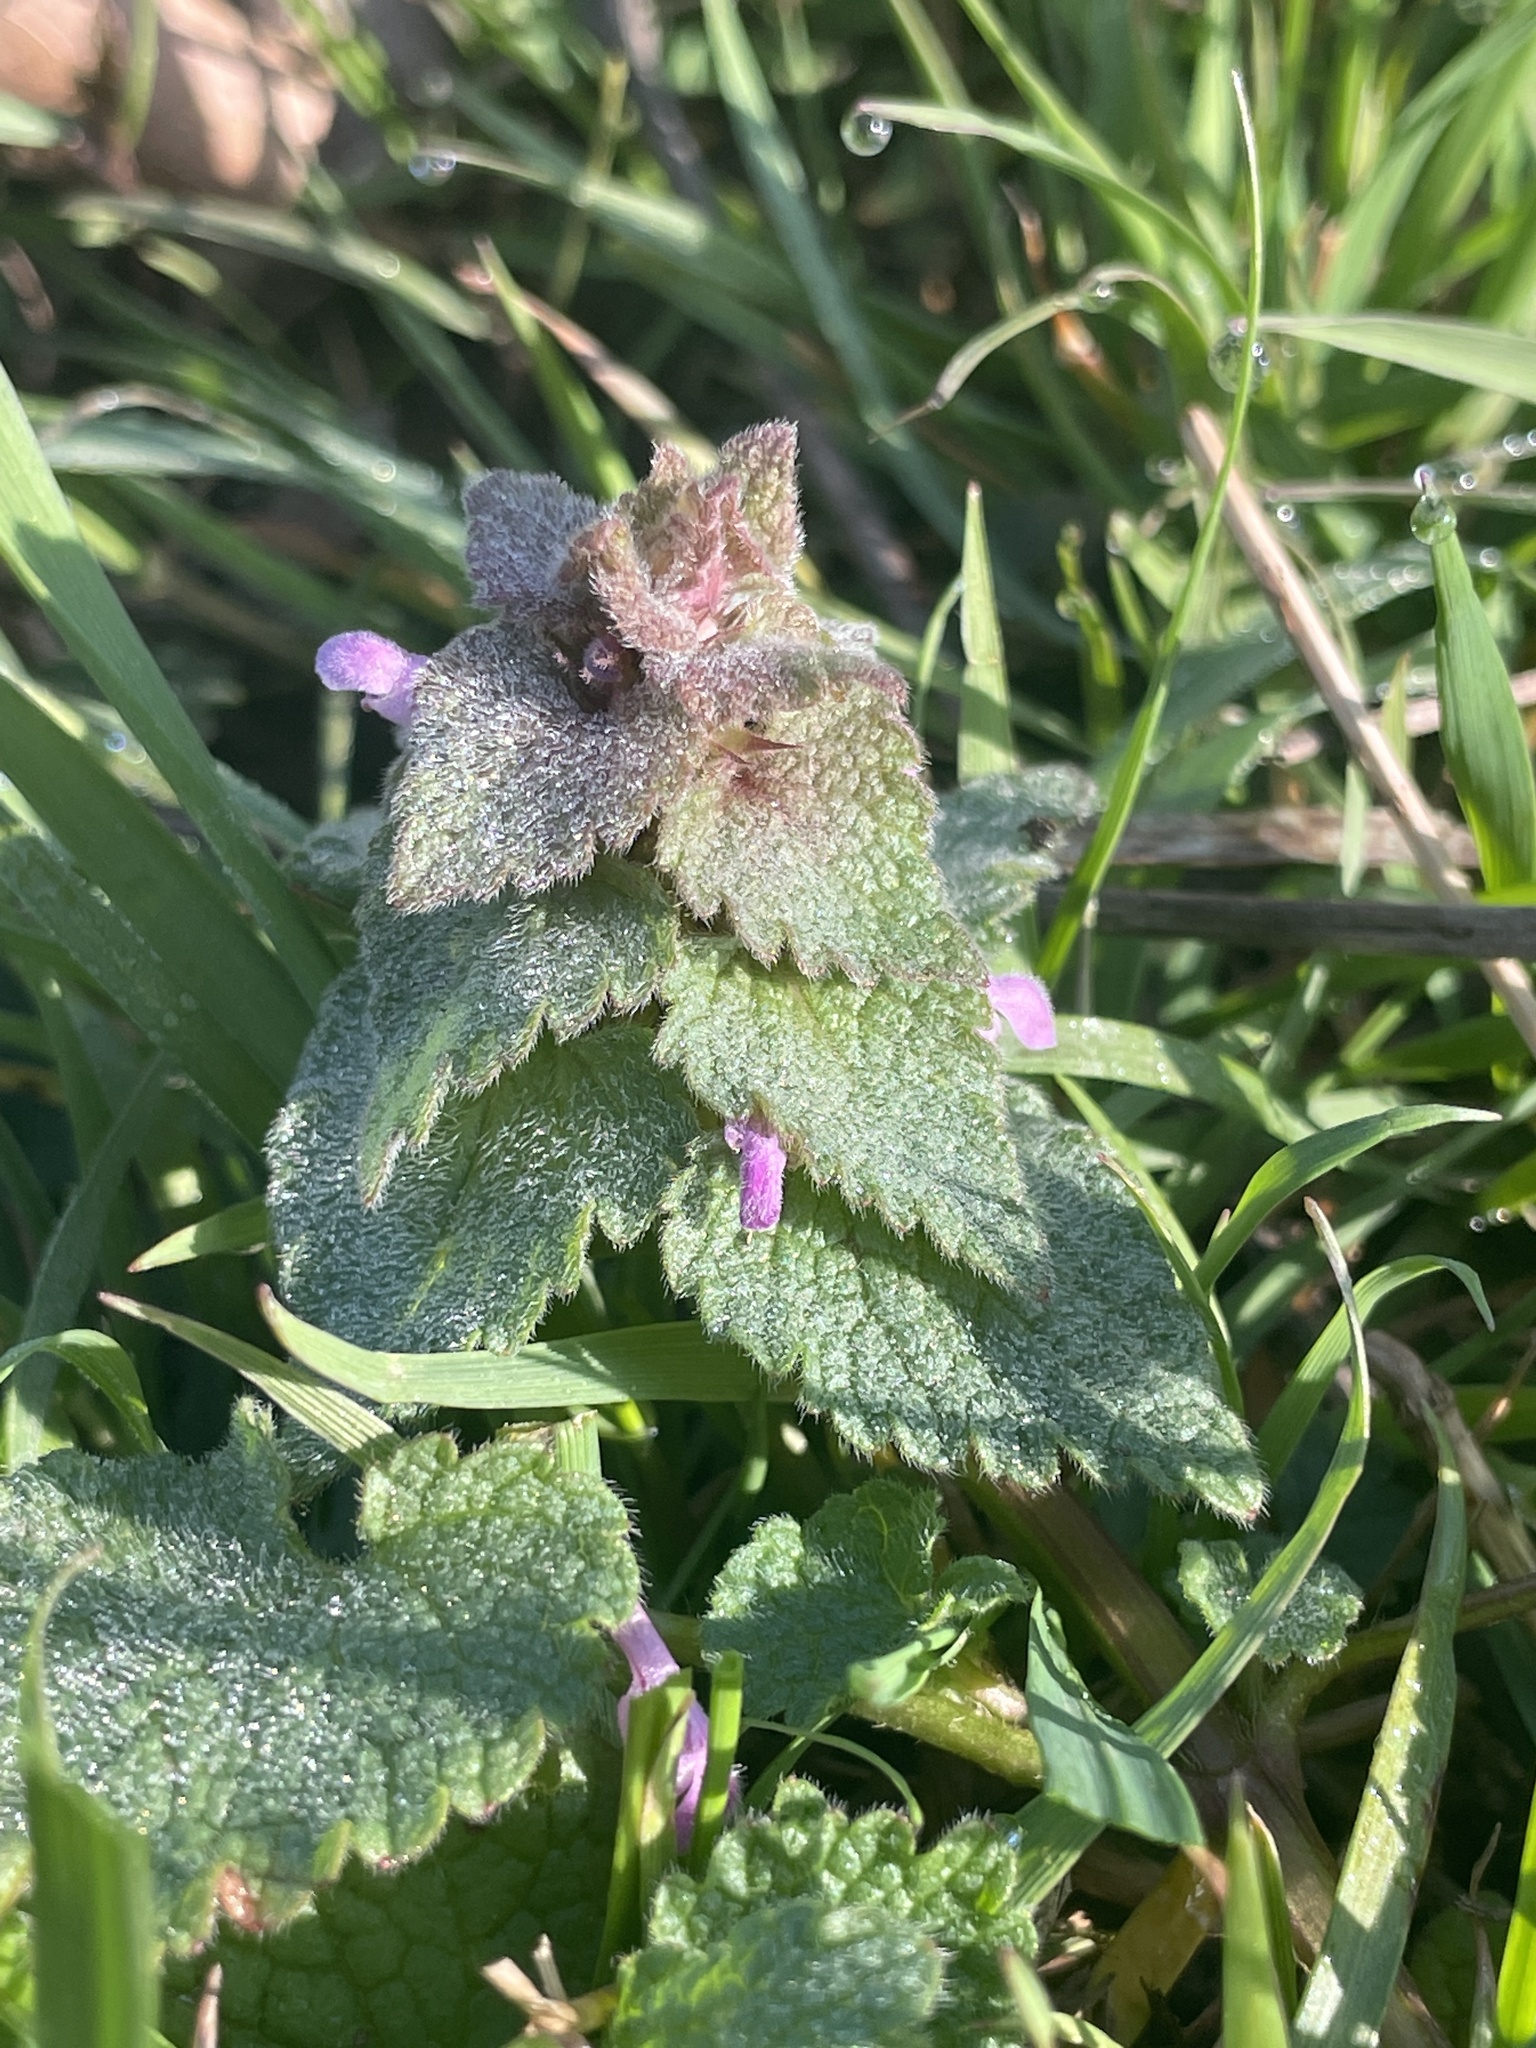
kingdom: Plantae
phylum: Tracheophyta
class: Magnoliopsida
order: Lamiales
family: Lamiaceae
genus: Lamium
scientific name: Lamium purpureum
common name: Red dead-nettle
